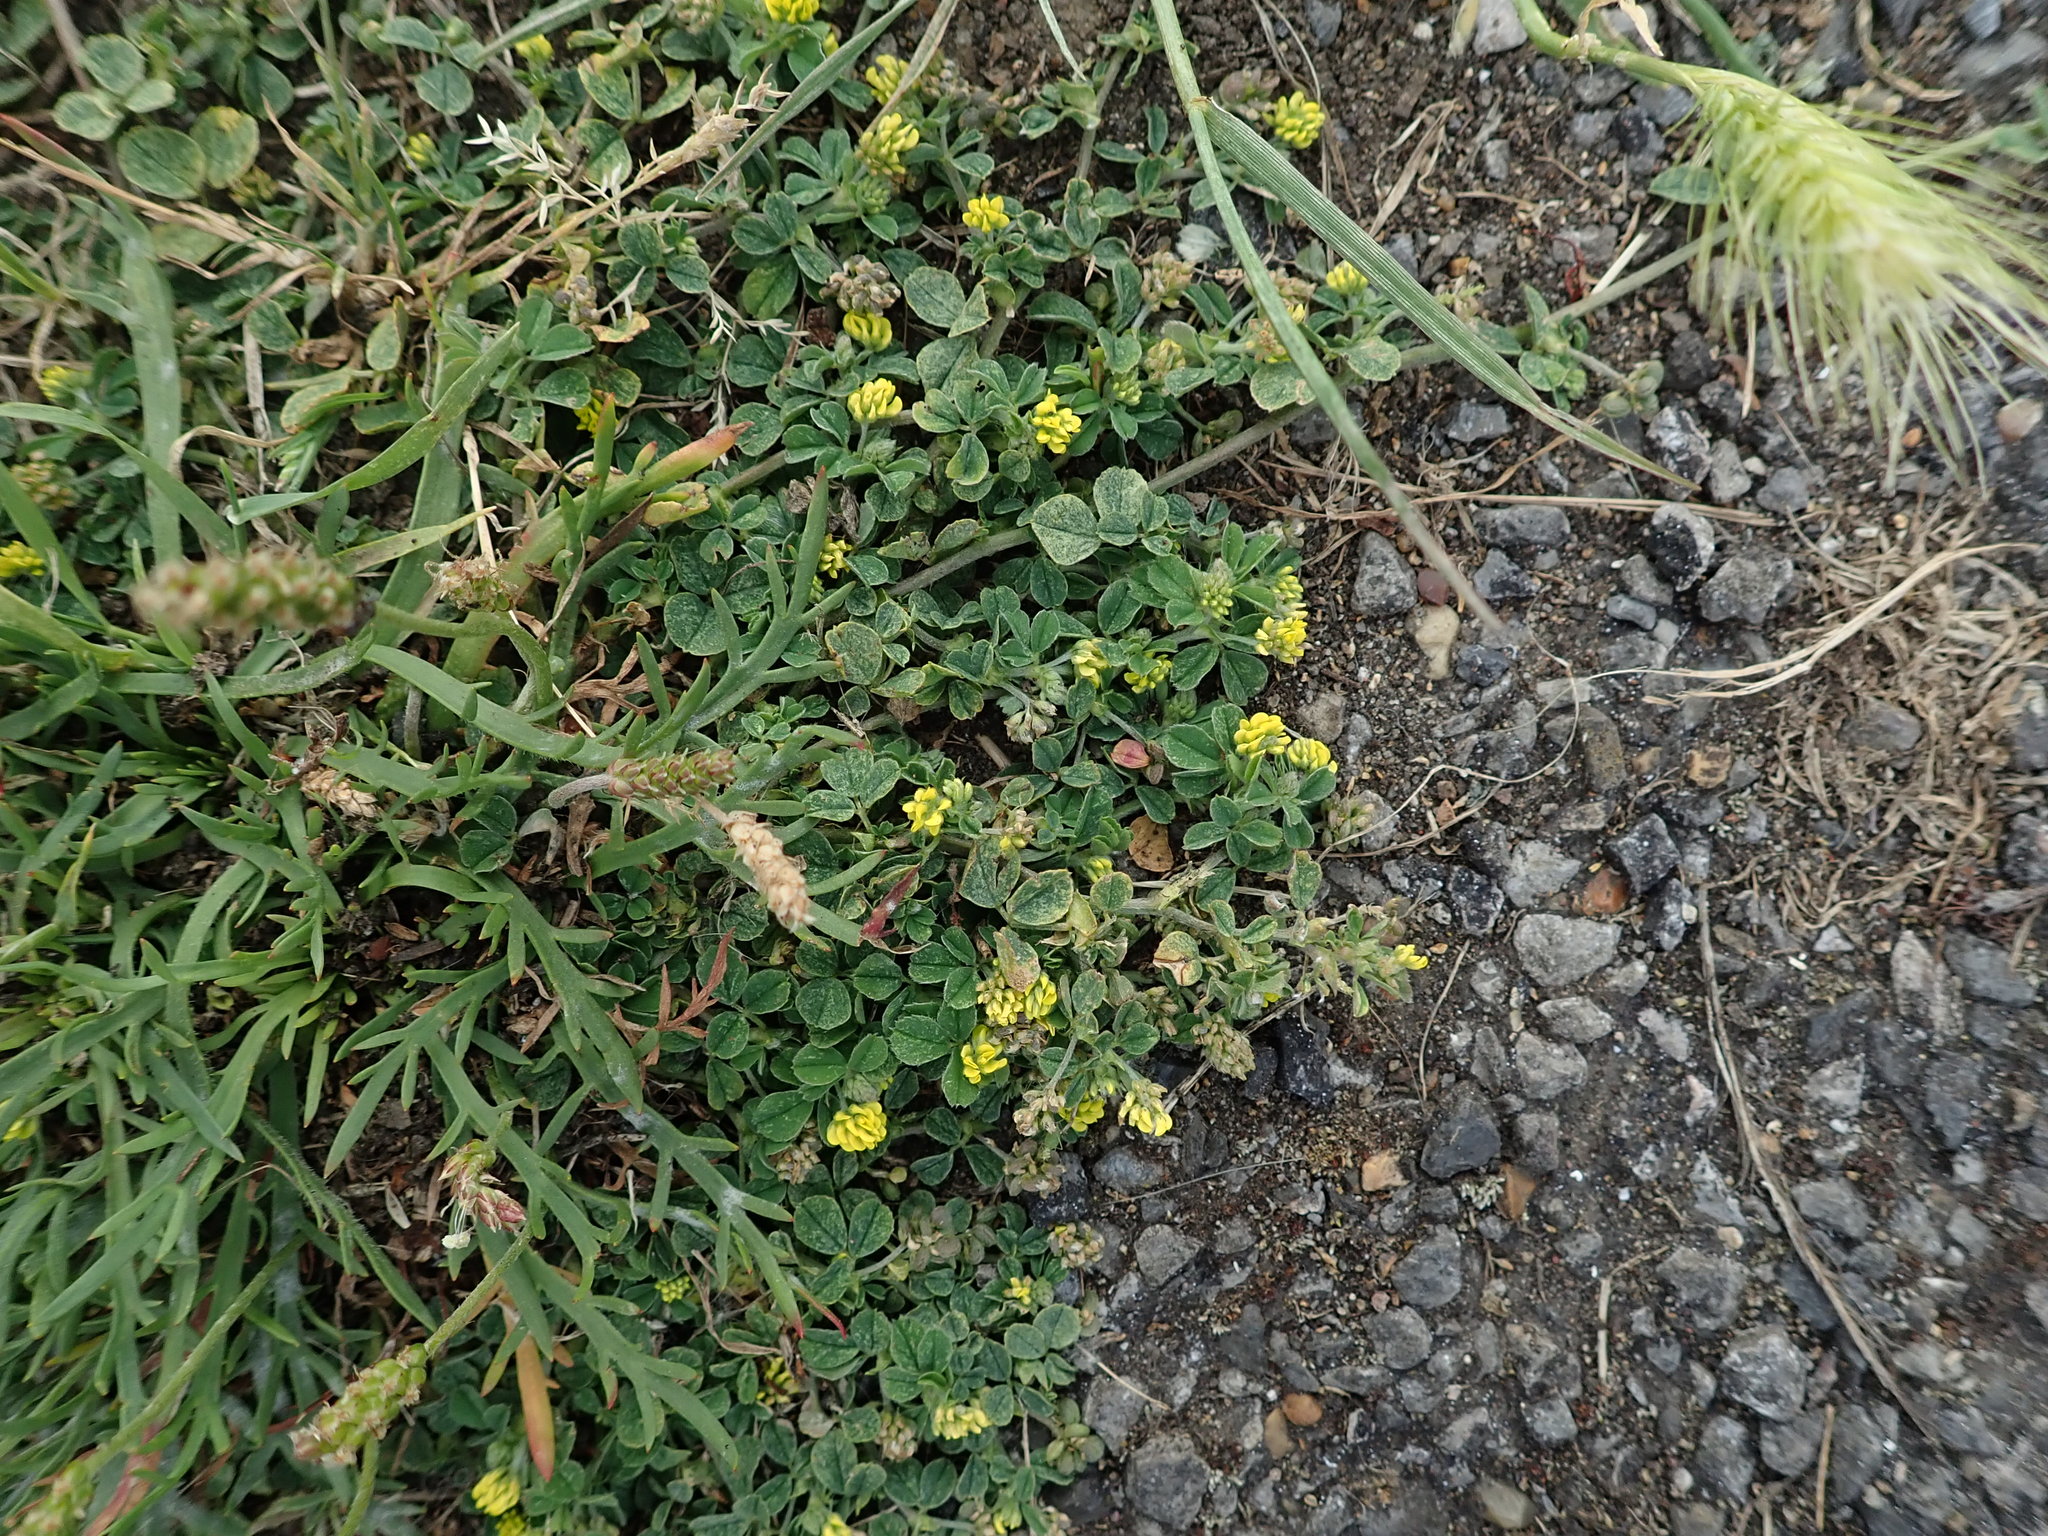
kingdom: Plantae
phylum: Tracheophyta
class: Magnoliopsida
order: Fabales
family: Fabaceae
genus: Medicago
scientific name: Medicago lupulina
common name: Black medick
